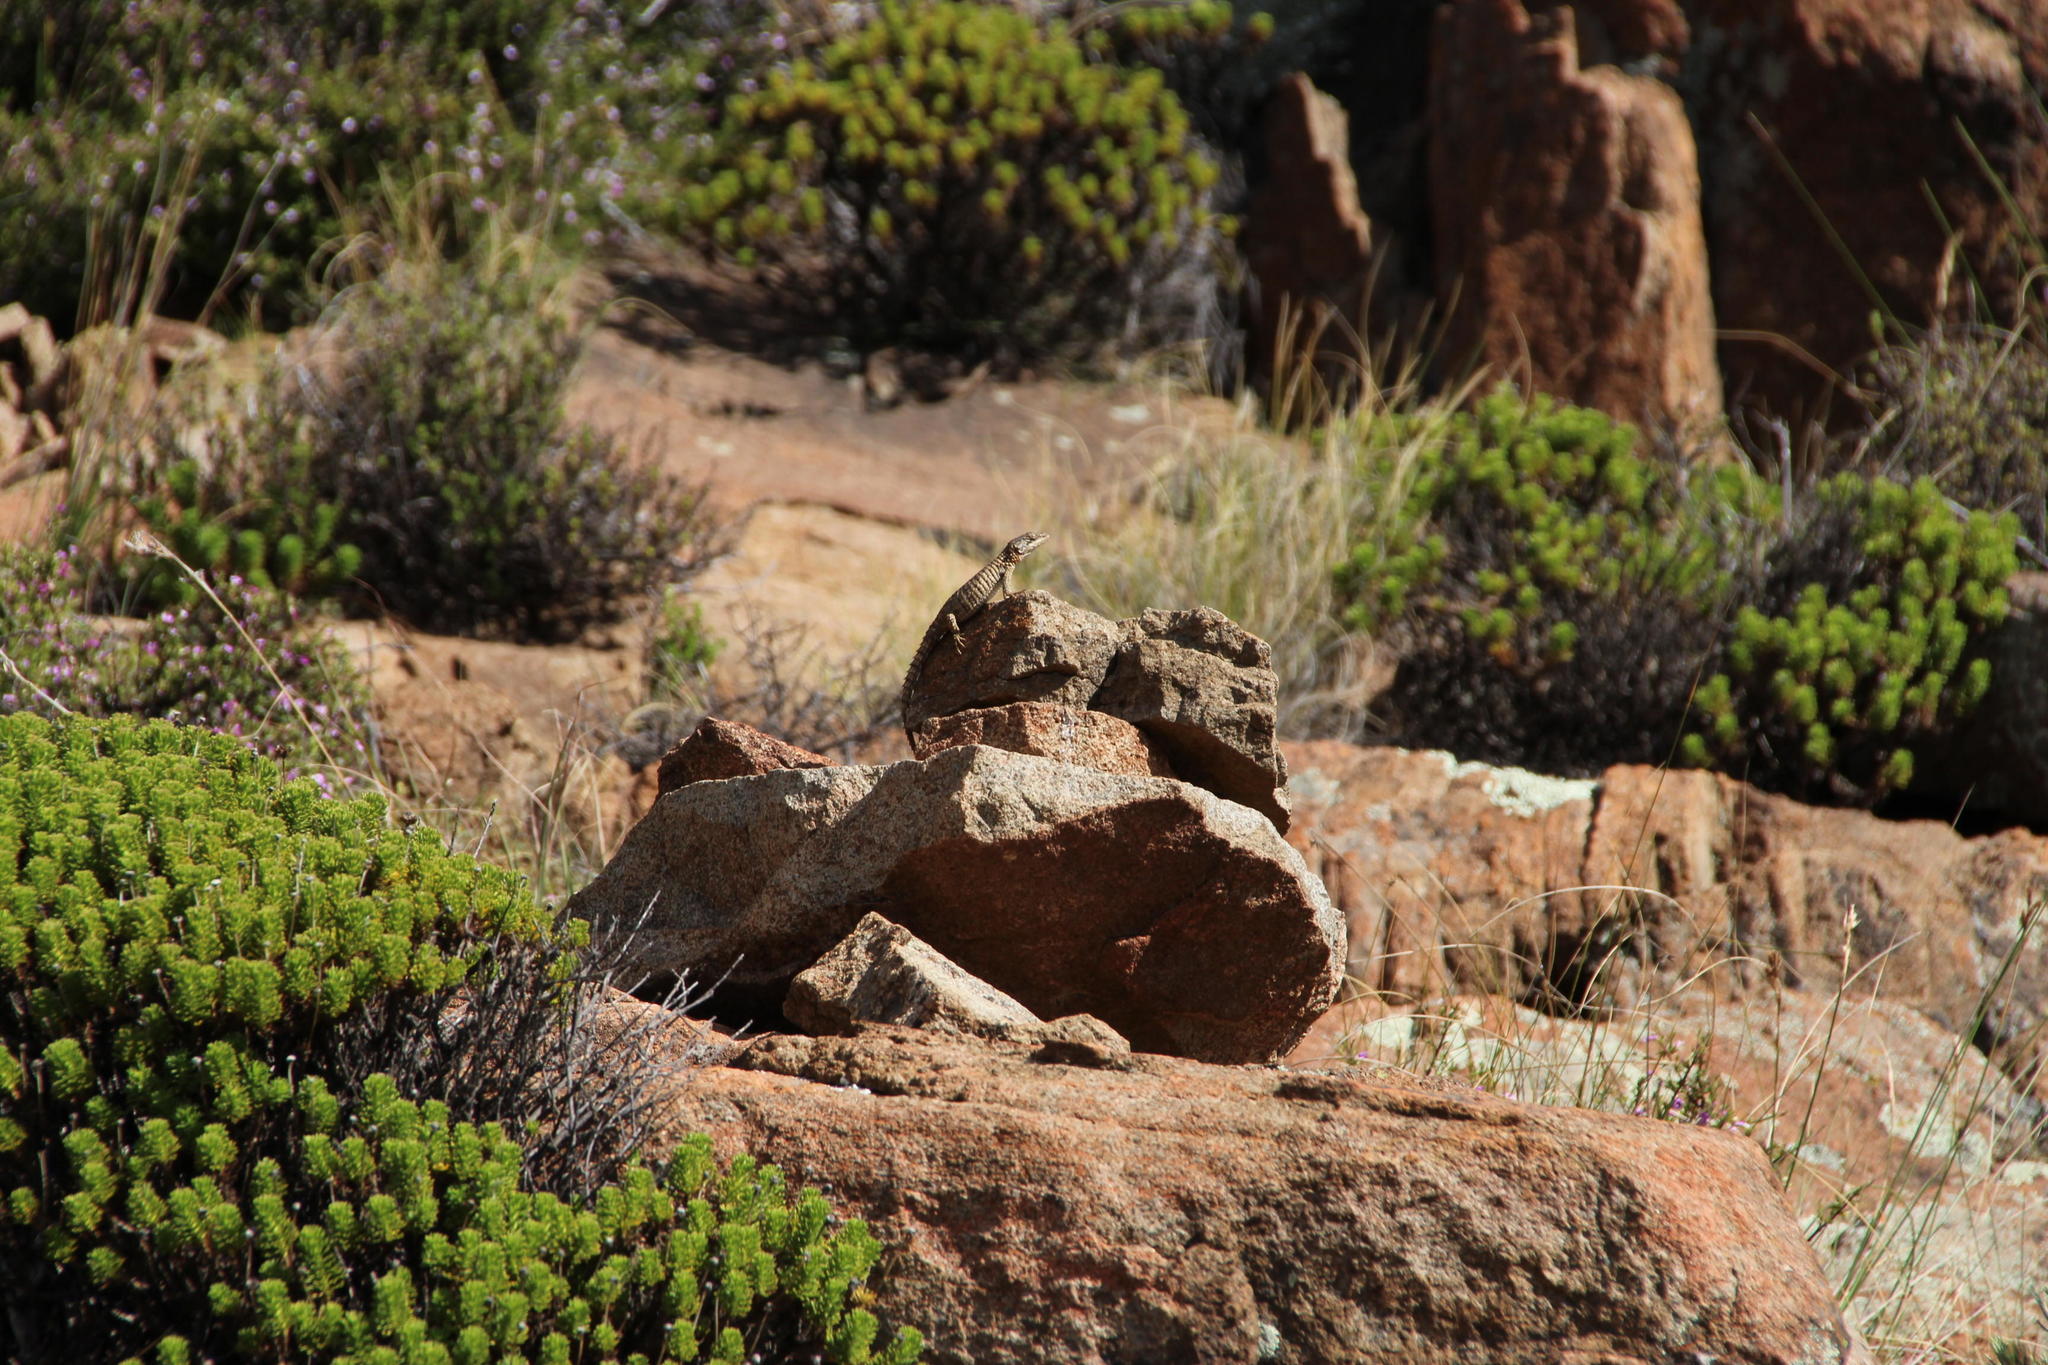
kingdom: Animalia
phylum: Chordata
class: Squamata
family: Cordylidae
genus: Cordylus
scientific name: Cordylus cordylus
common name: Cape girdled lizard
